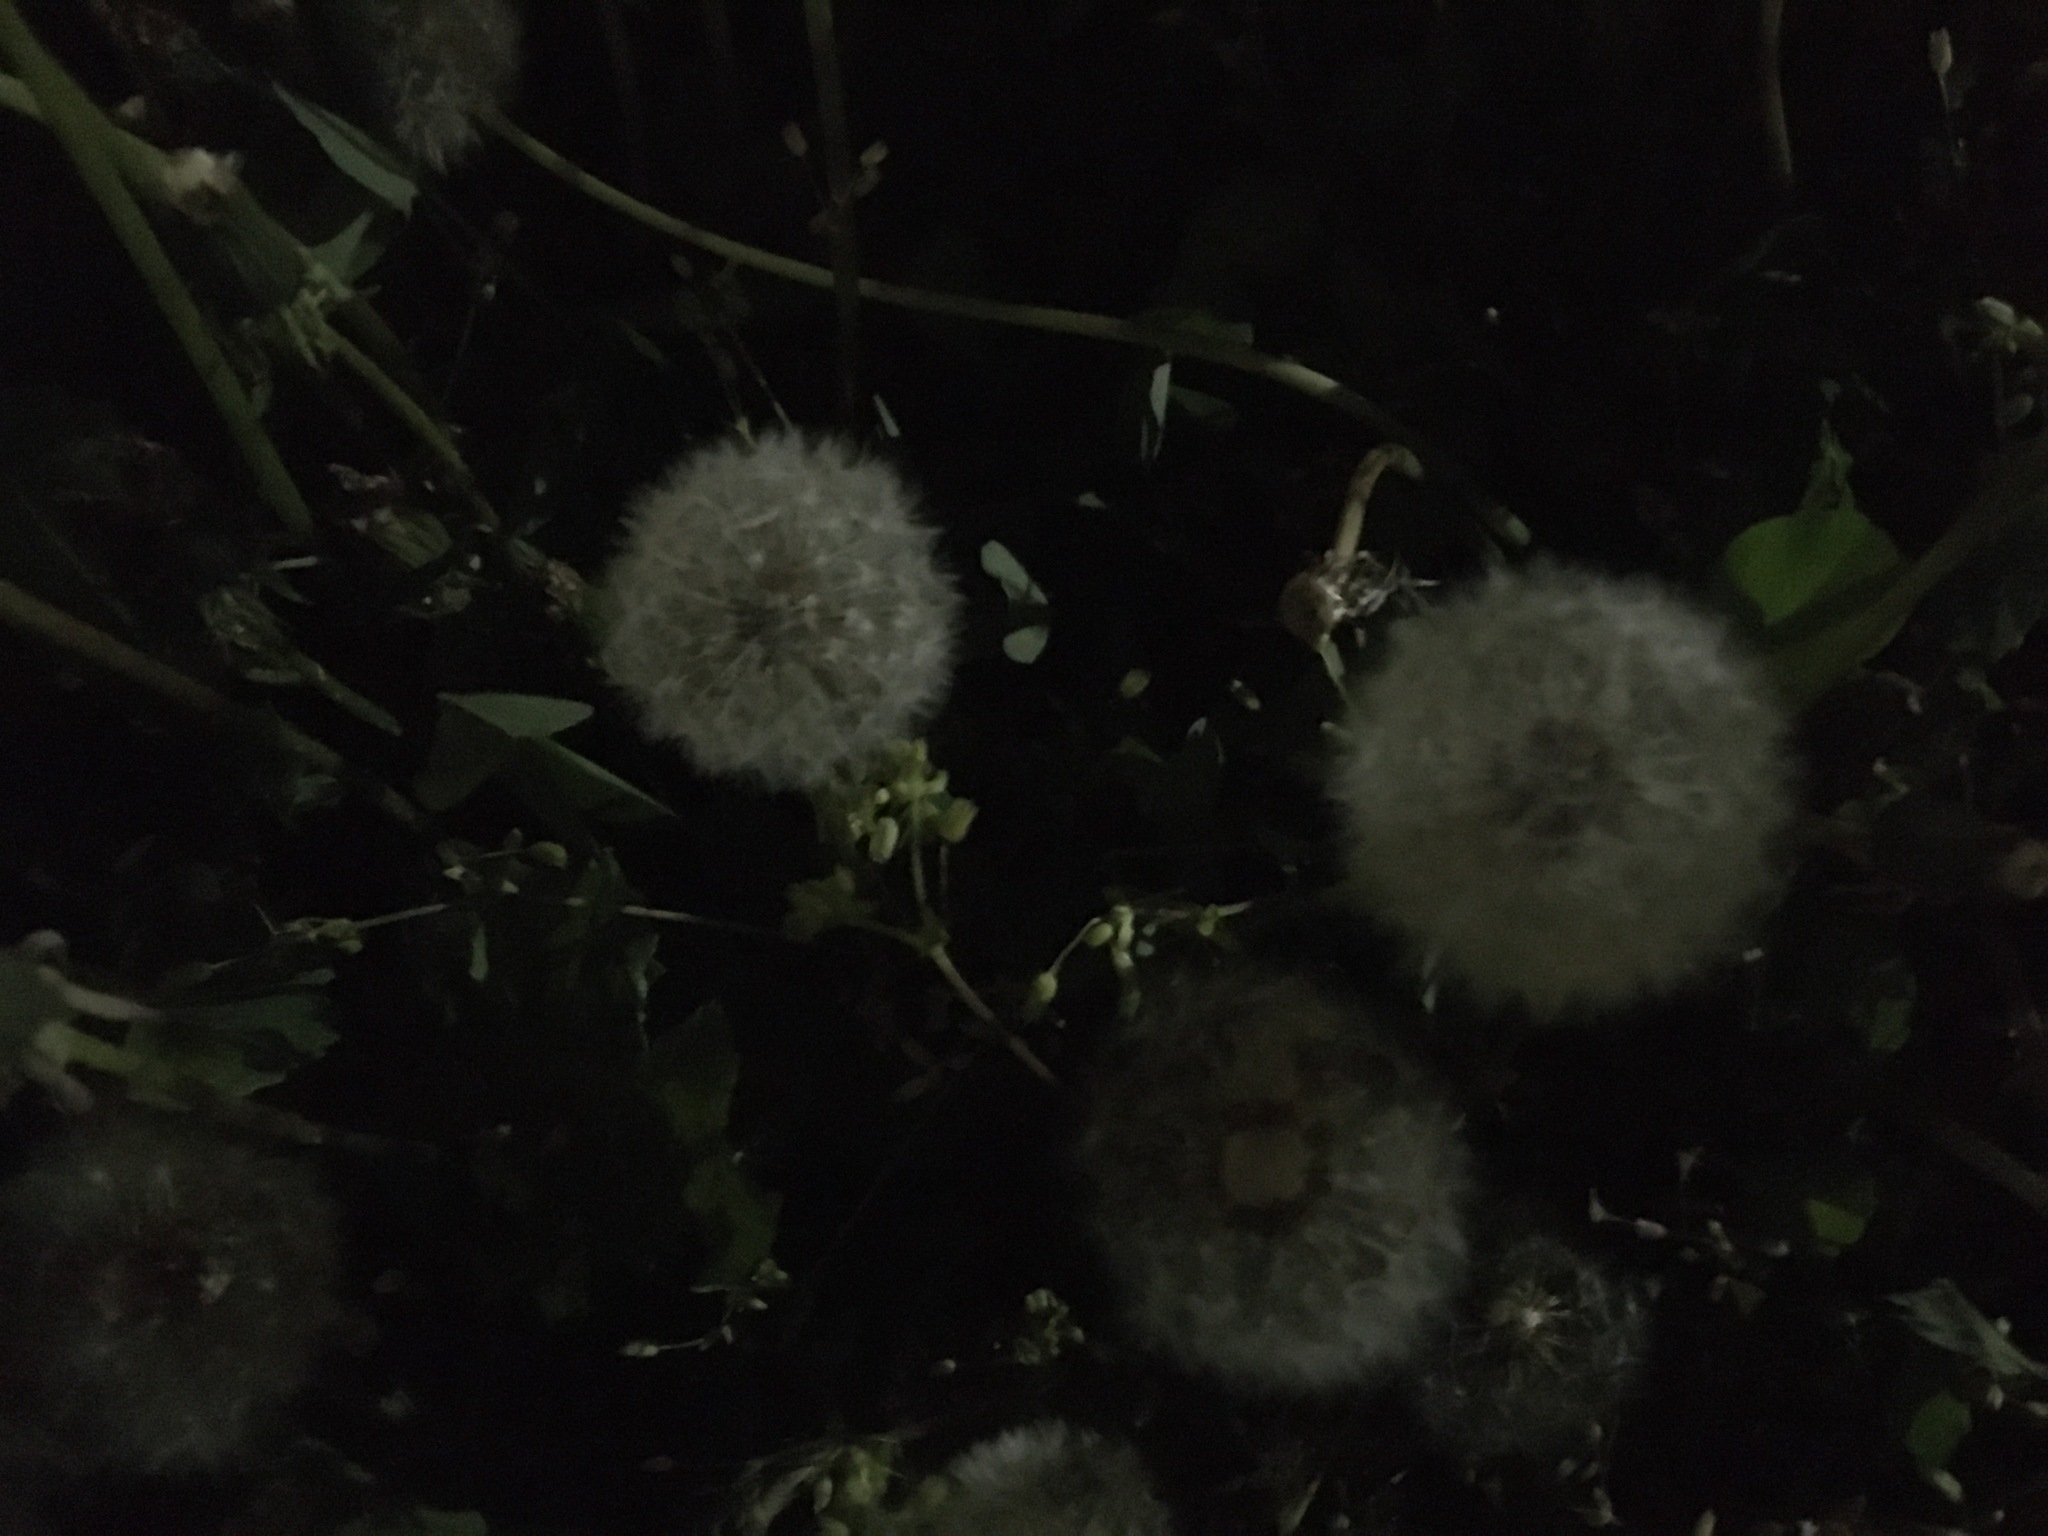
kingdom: Plantae
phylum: Tracheophyta
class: Magnoliopsida
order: Asterales
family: Asteraceae
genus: Taraxacum
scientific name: Taraxacum officinale
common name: Common dandelion
